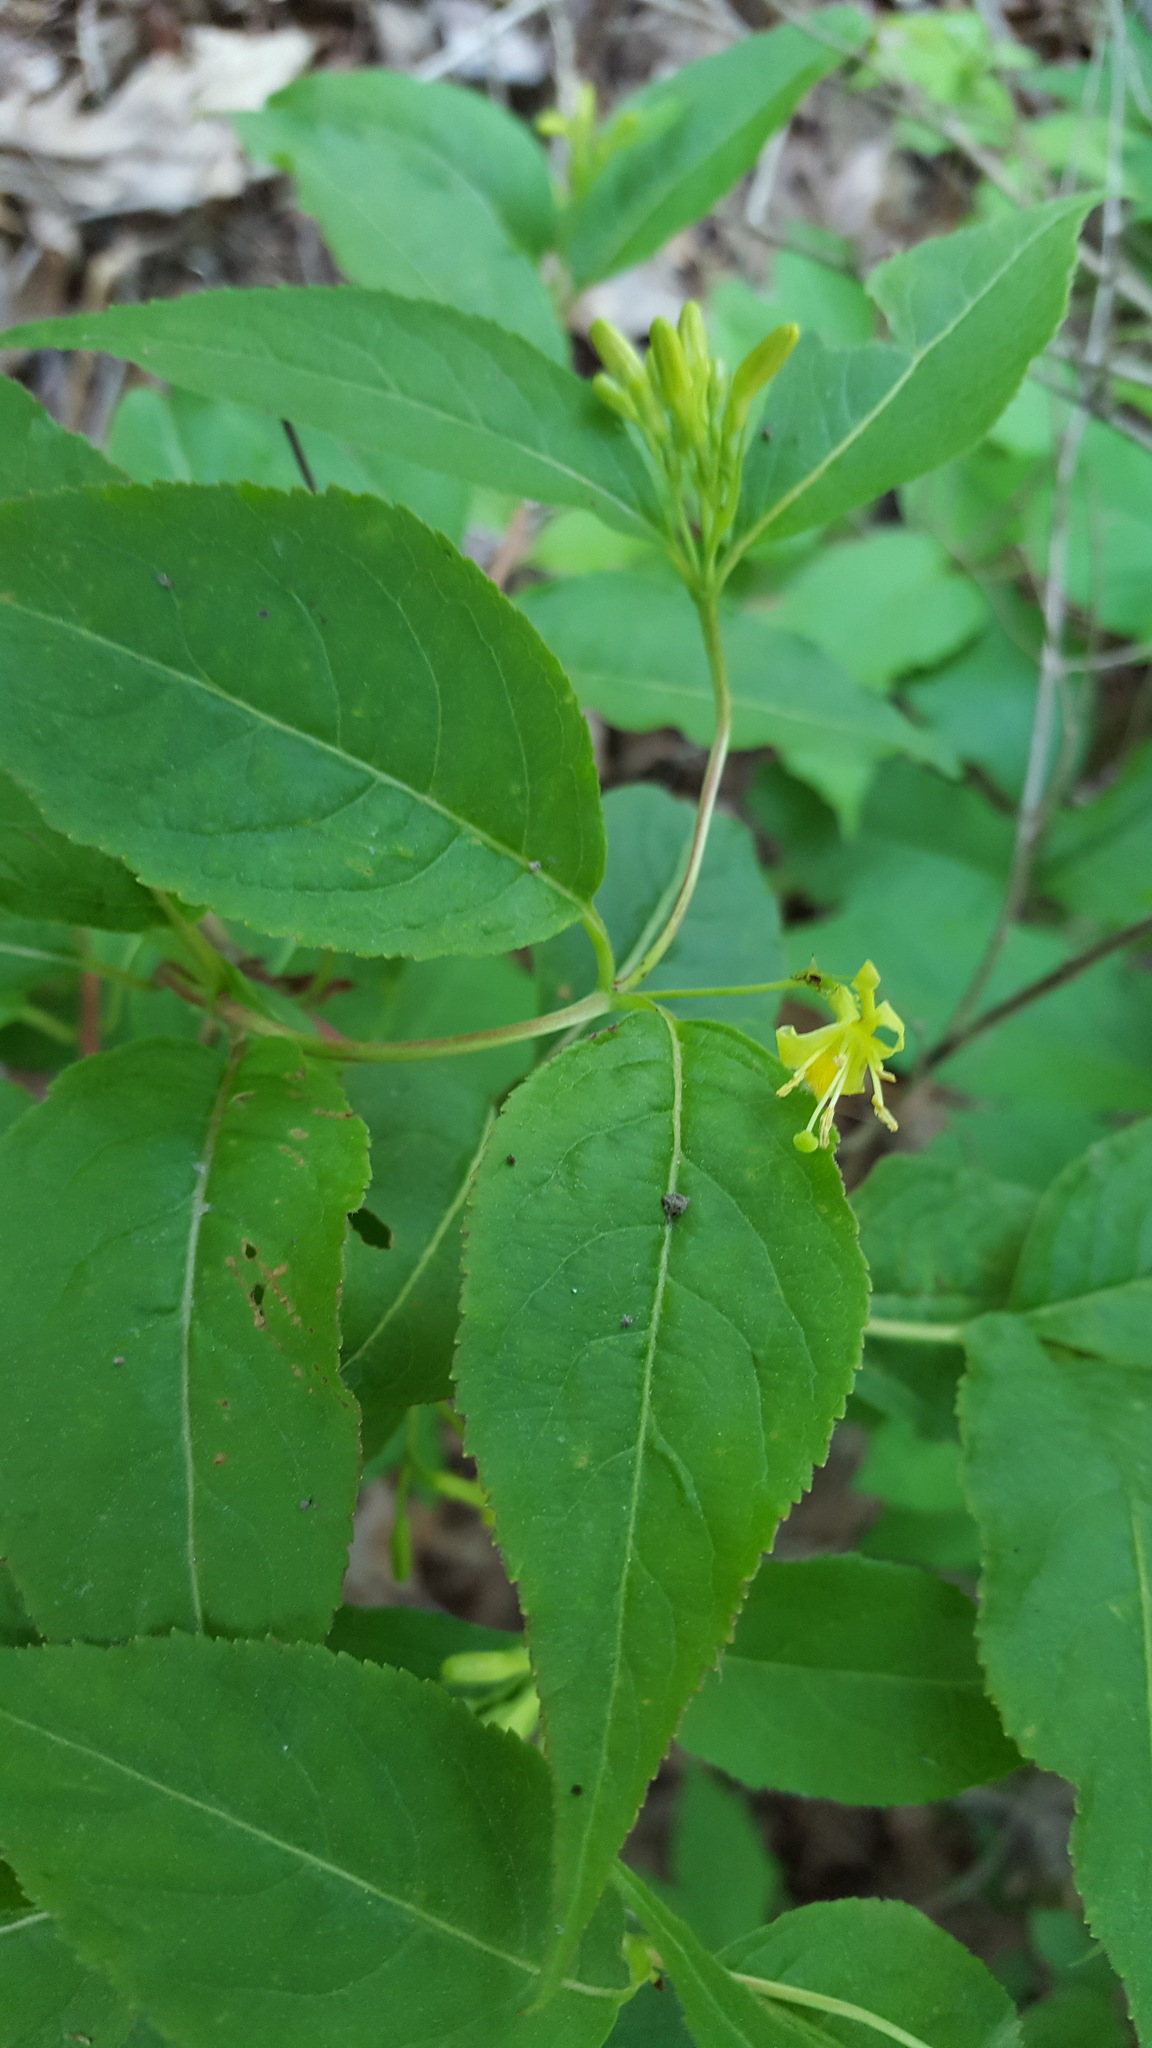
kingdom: Plantae
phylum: Tracheophyta
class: Magnoliopsida
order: Dipsacales
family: Caprifoliaceae
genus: Diervilla
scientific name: Diervilla lonicera
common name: Bush-honeysuckle
